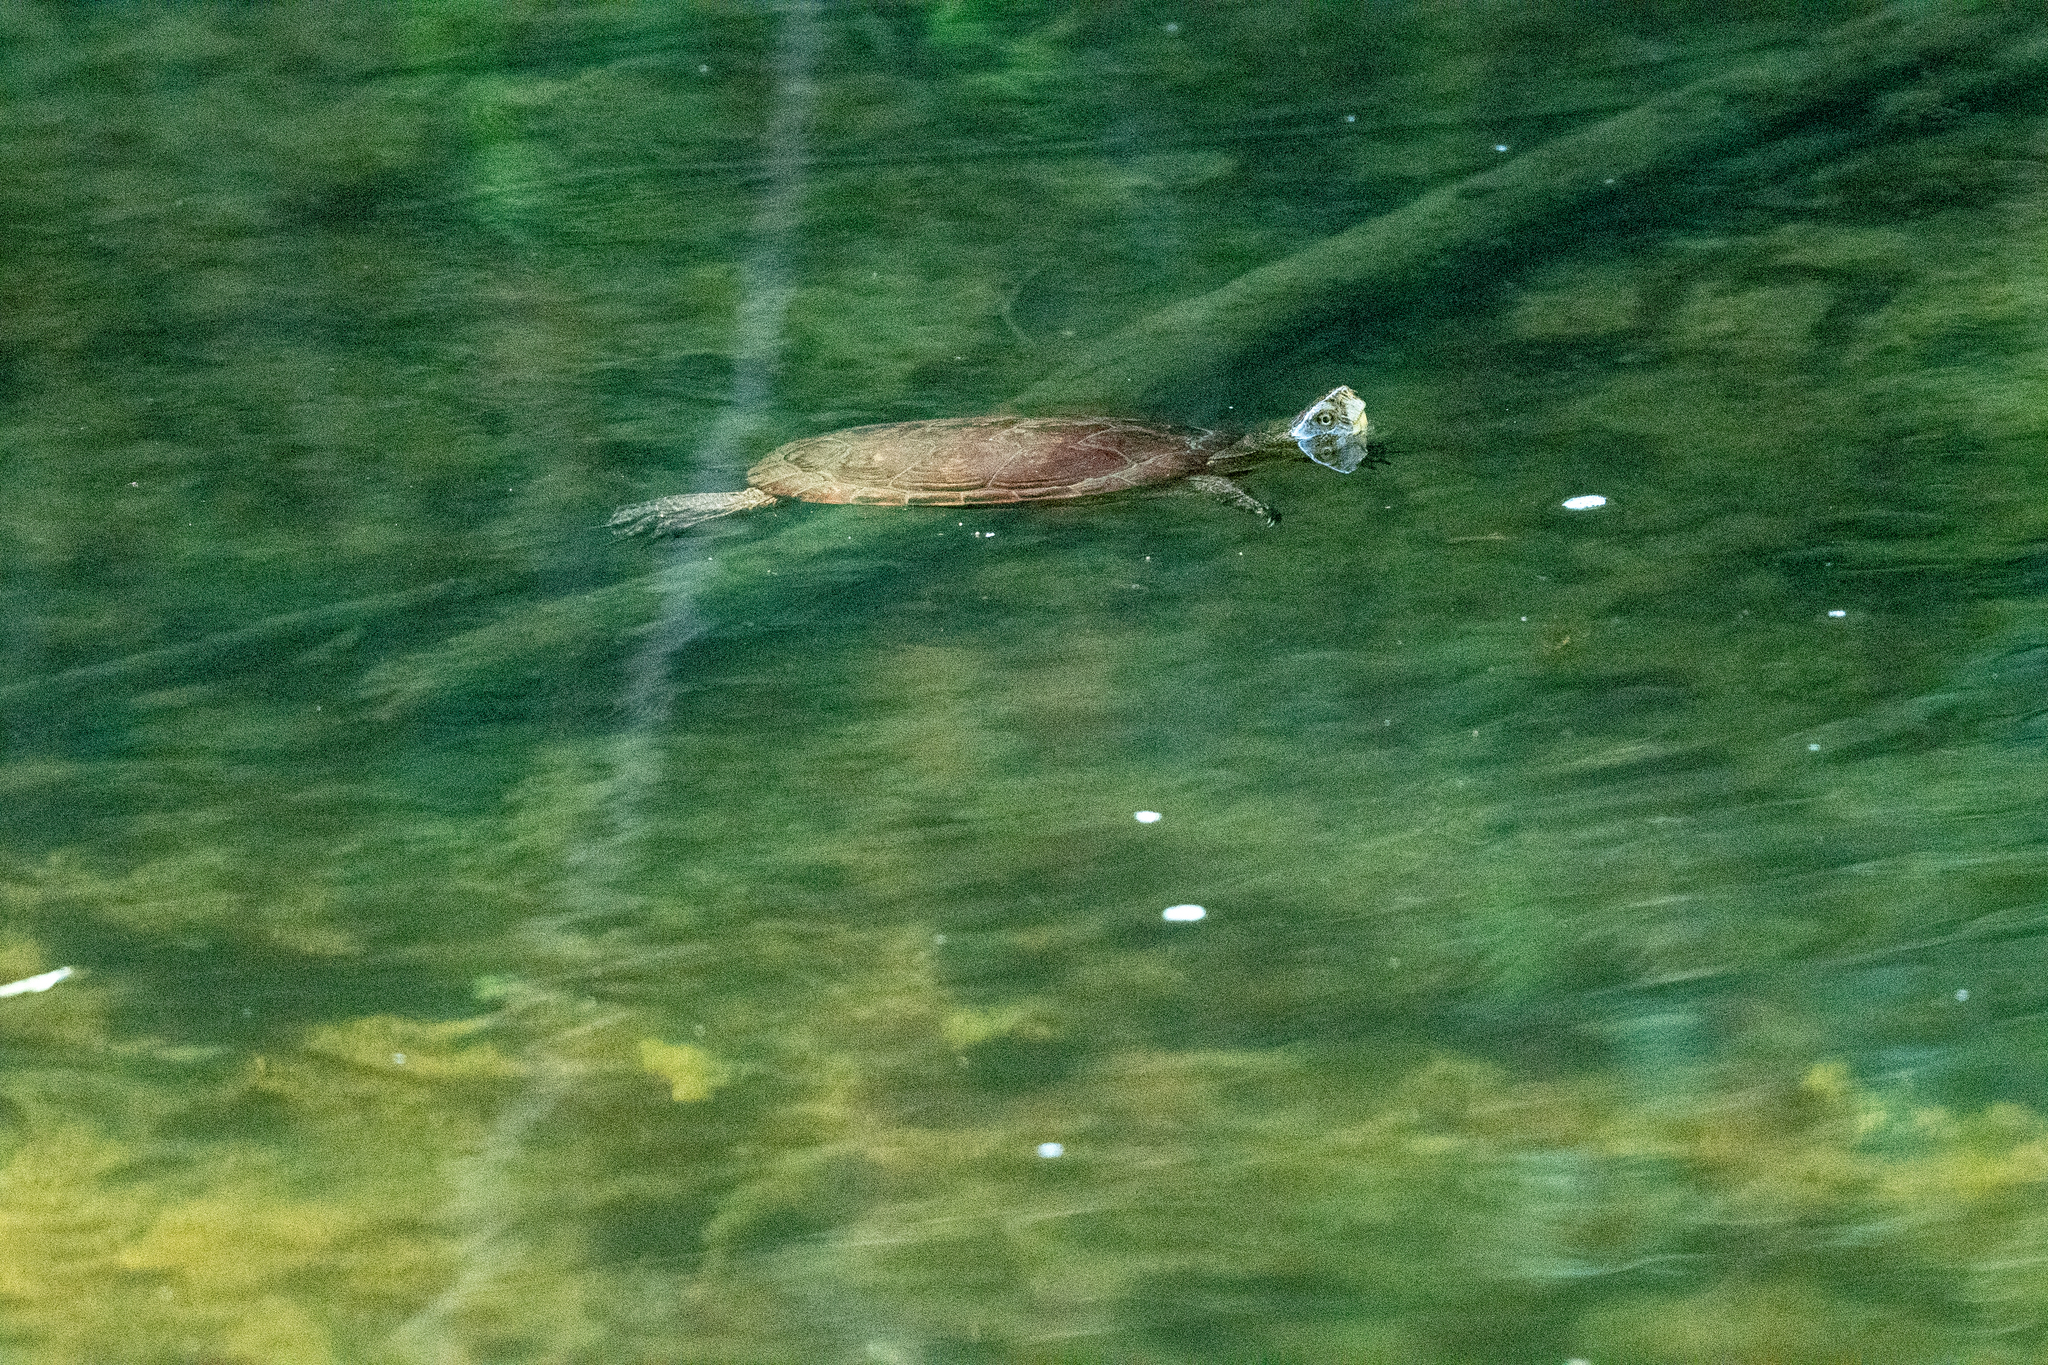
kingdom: Animalia
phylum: Chordata
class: Testudines
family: Emydidae
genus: Actinemys
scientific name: Actinemys marmorata
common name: Western pond turtle
